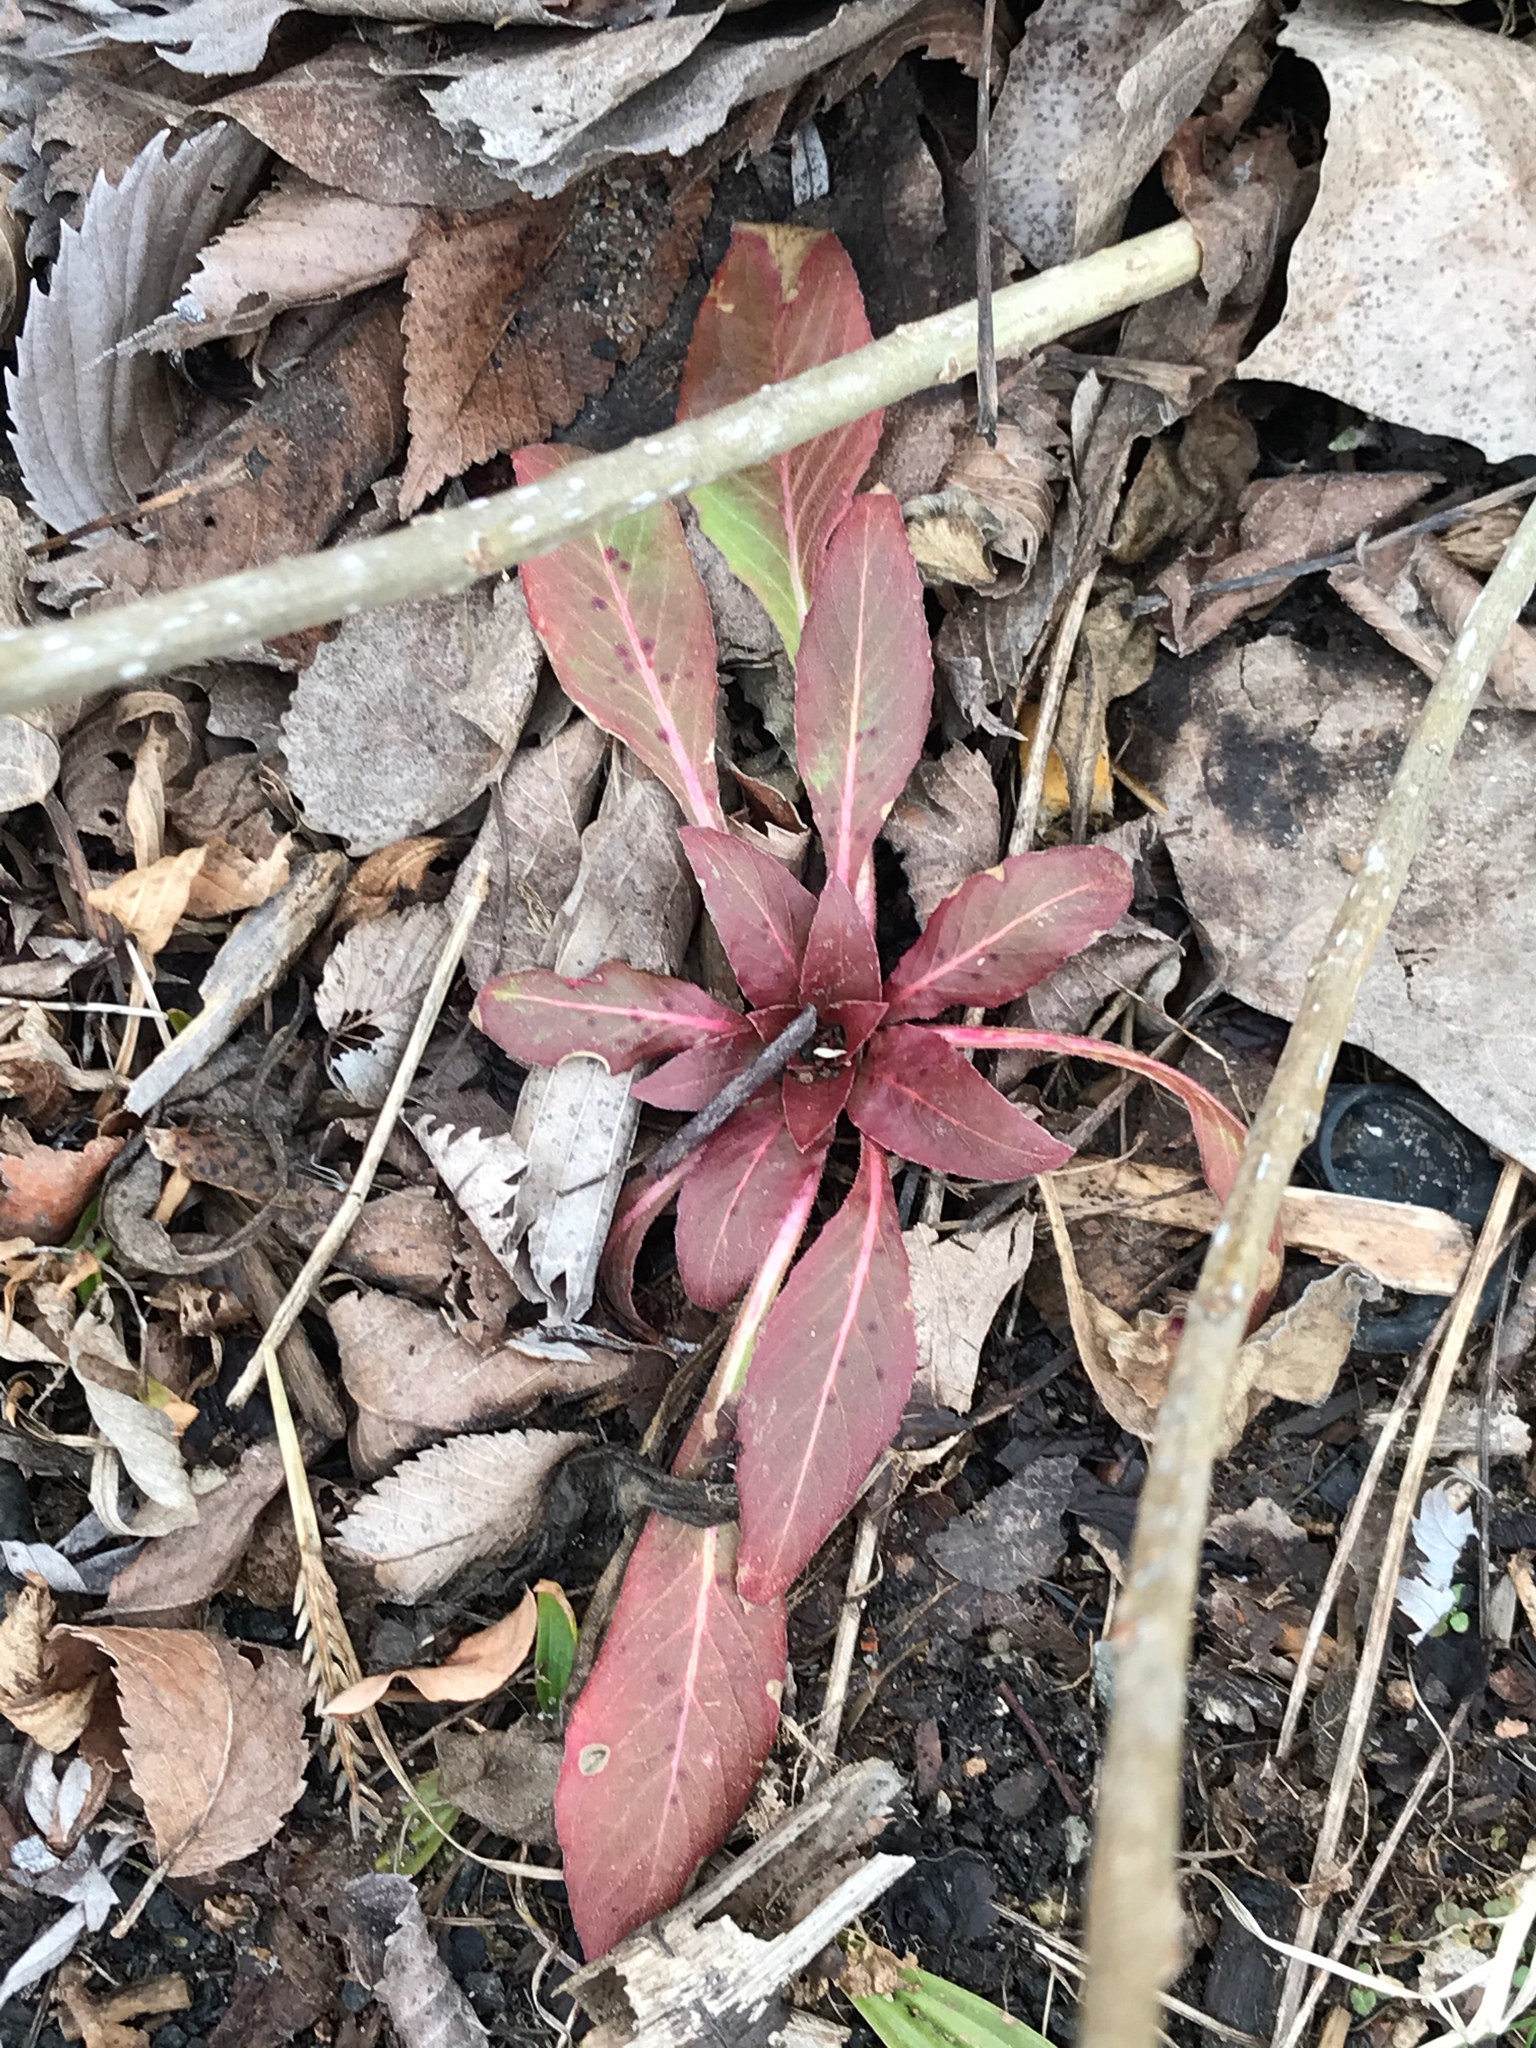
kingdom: Plantae
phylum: Tracheophyta
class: Magnoliopsida
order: Myrtales
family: Onagraceae
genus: Oenothera
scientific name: Oenothera biennis
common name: Common evening-primrose
